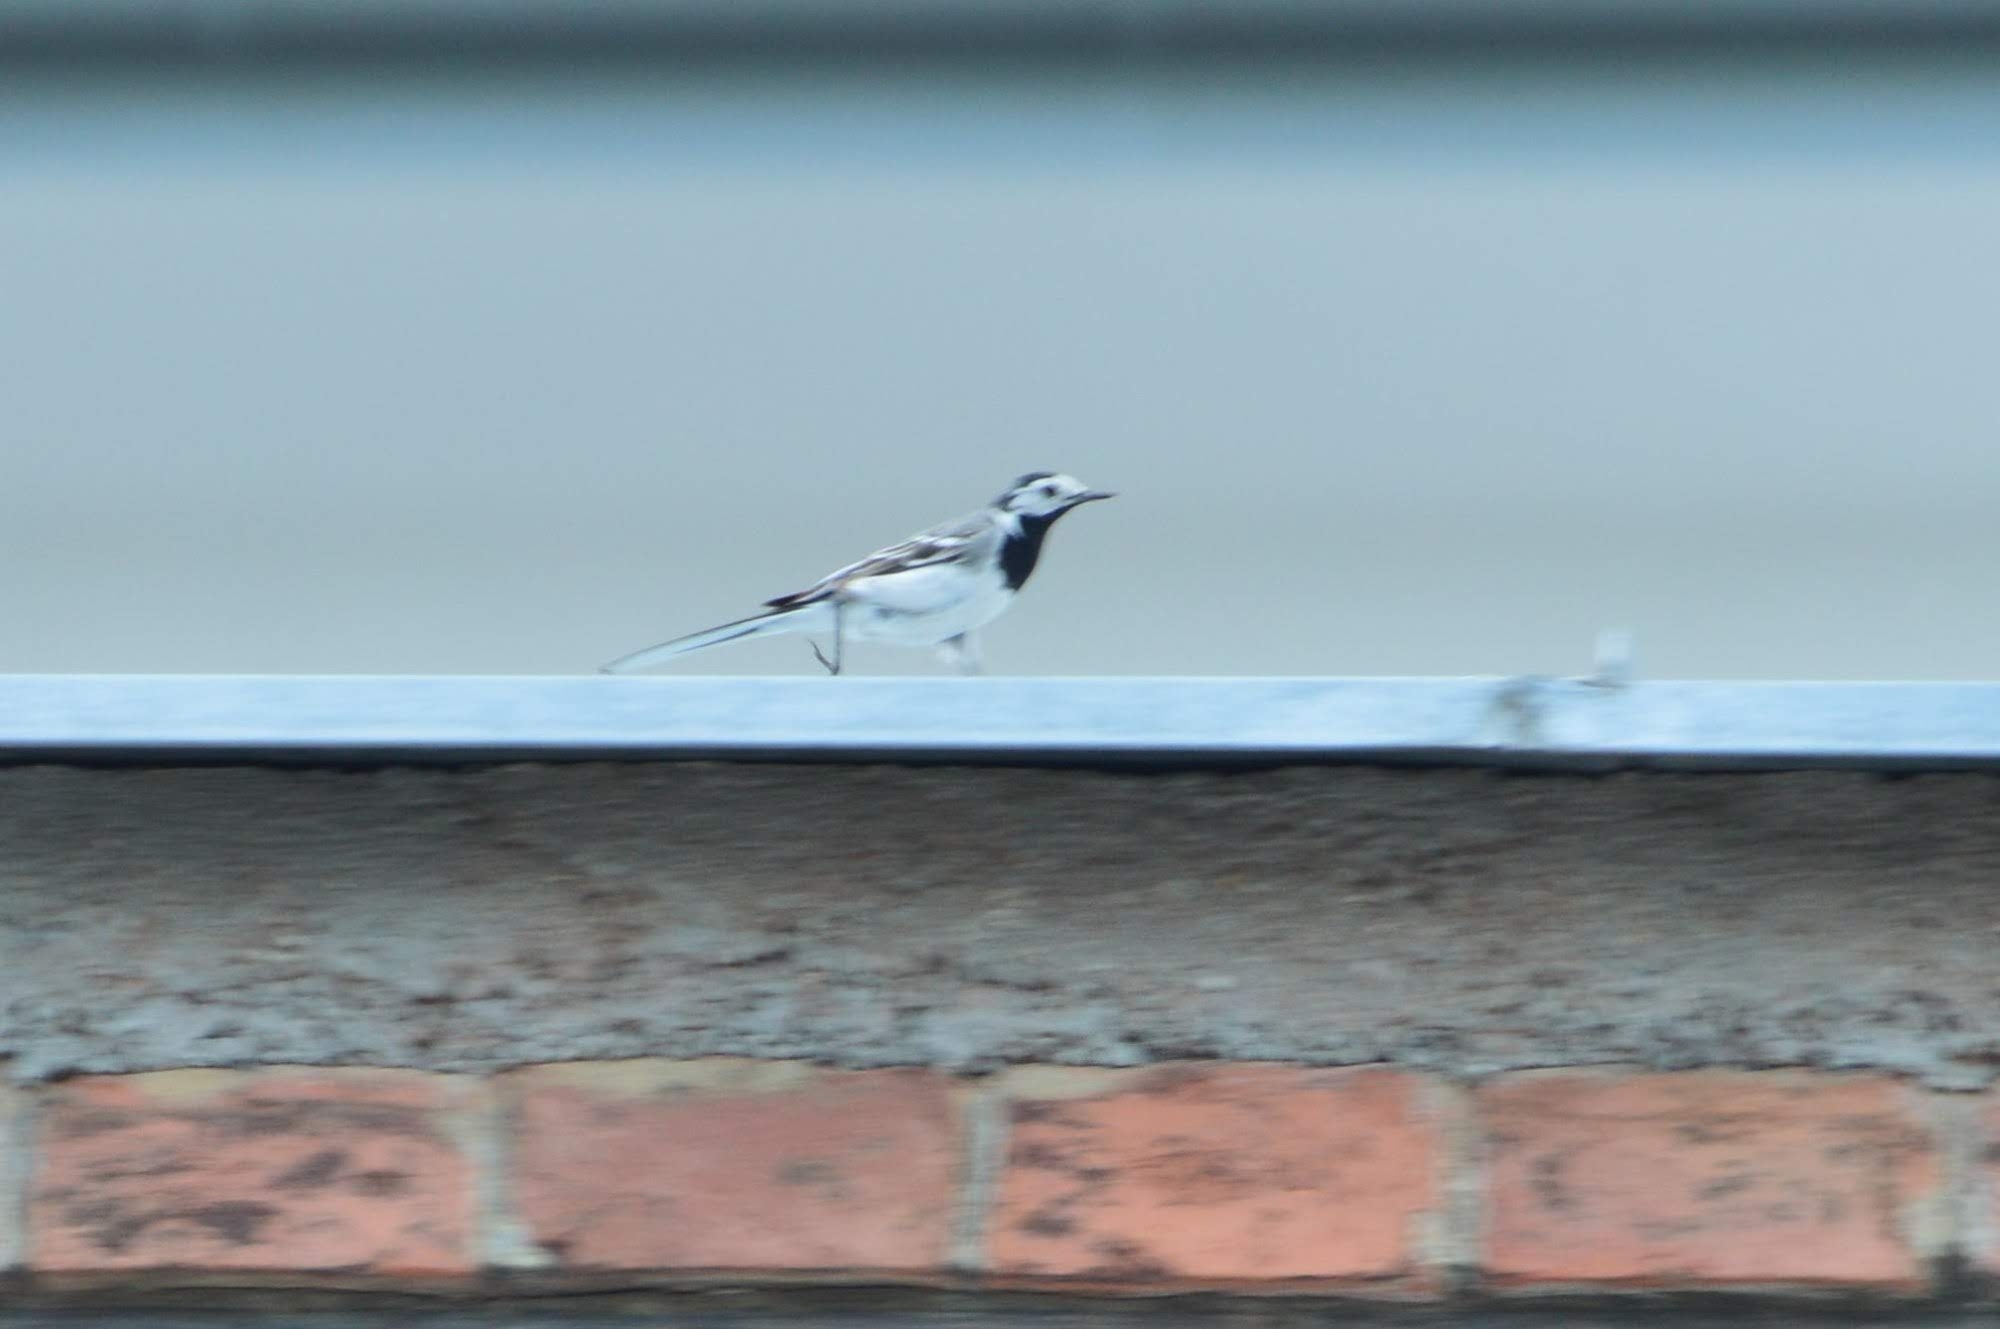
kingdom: Animalia
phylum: Chordata
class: Aves
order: Passeriformes
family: Motacillidae
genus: Motacilla
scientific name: Motacilla alba
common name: White wagtail
